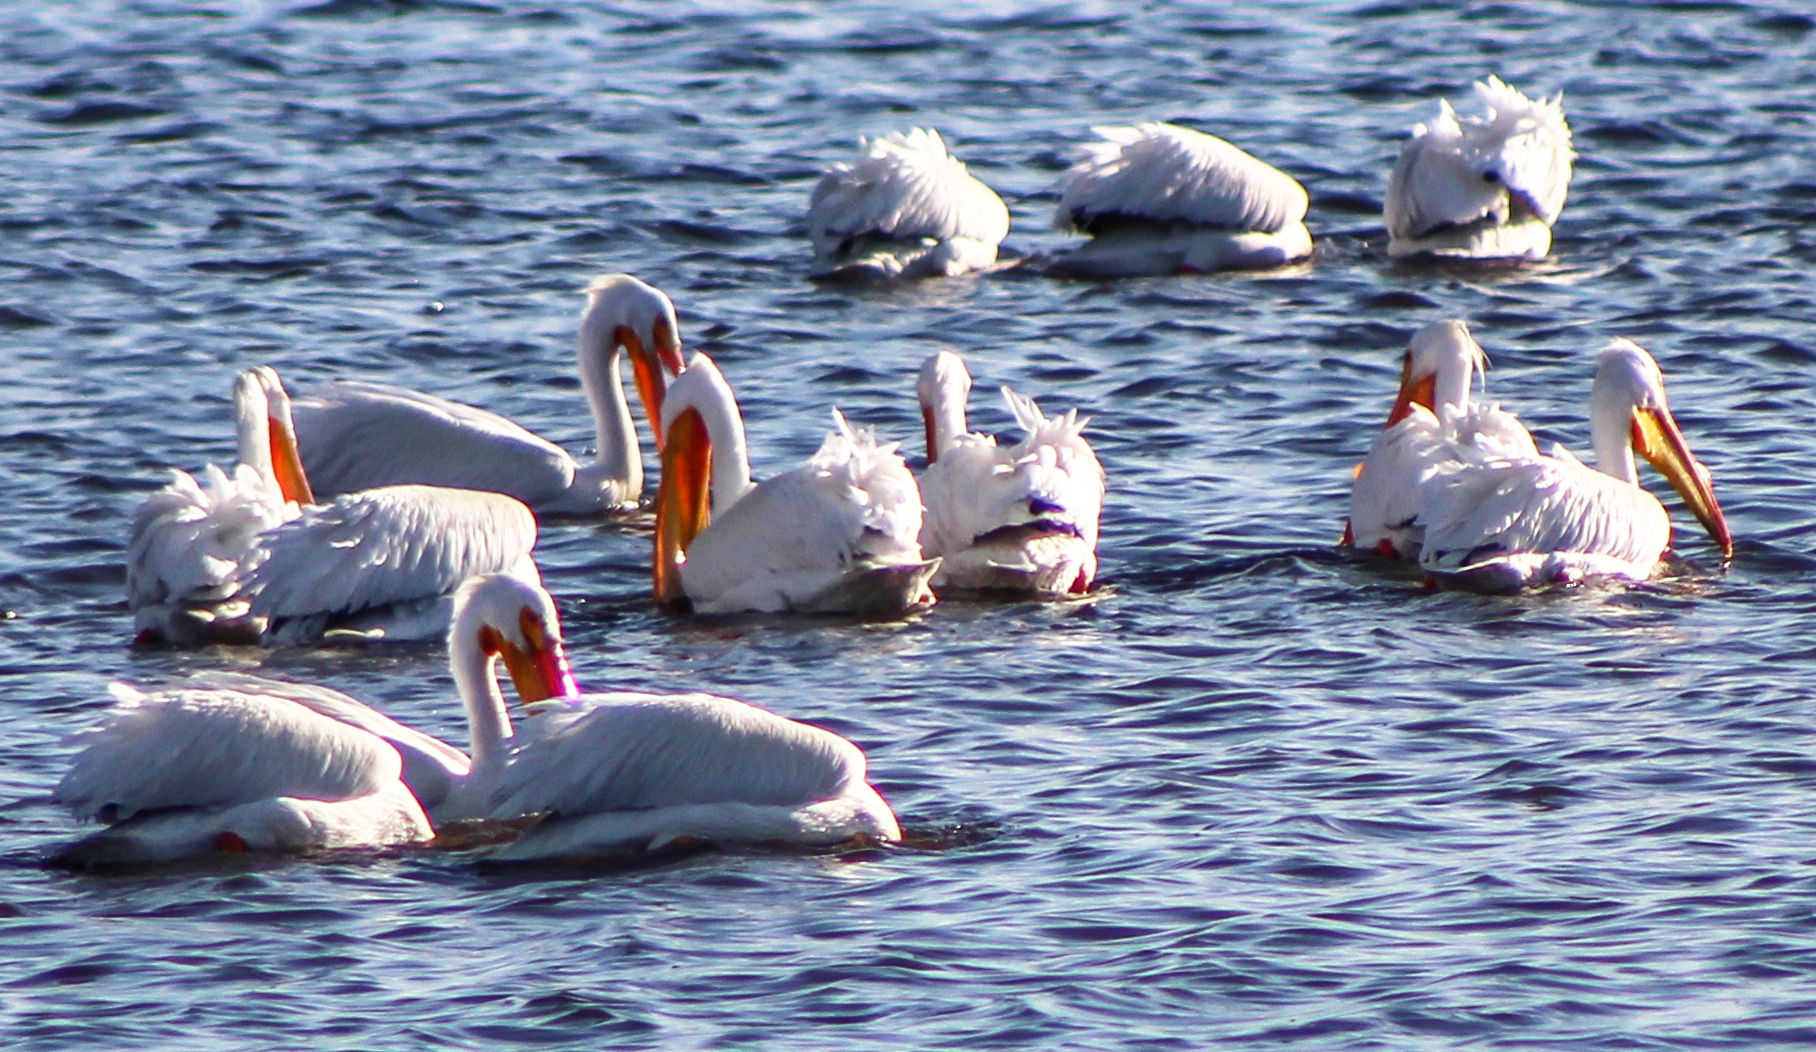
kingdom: Animalia
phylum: Chordata
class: Aves
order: Pelecaniformes
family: Pelecanidae
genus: Pelecanus
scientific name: Pelecanus erythrorhynchos
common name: American white pelican
